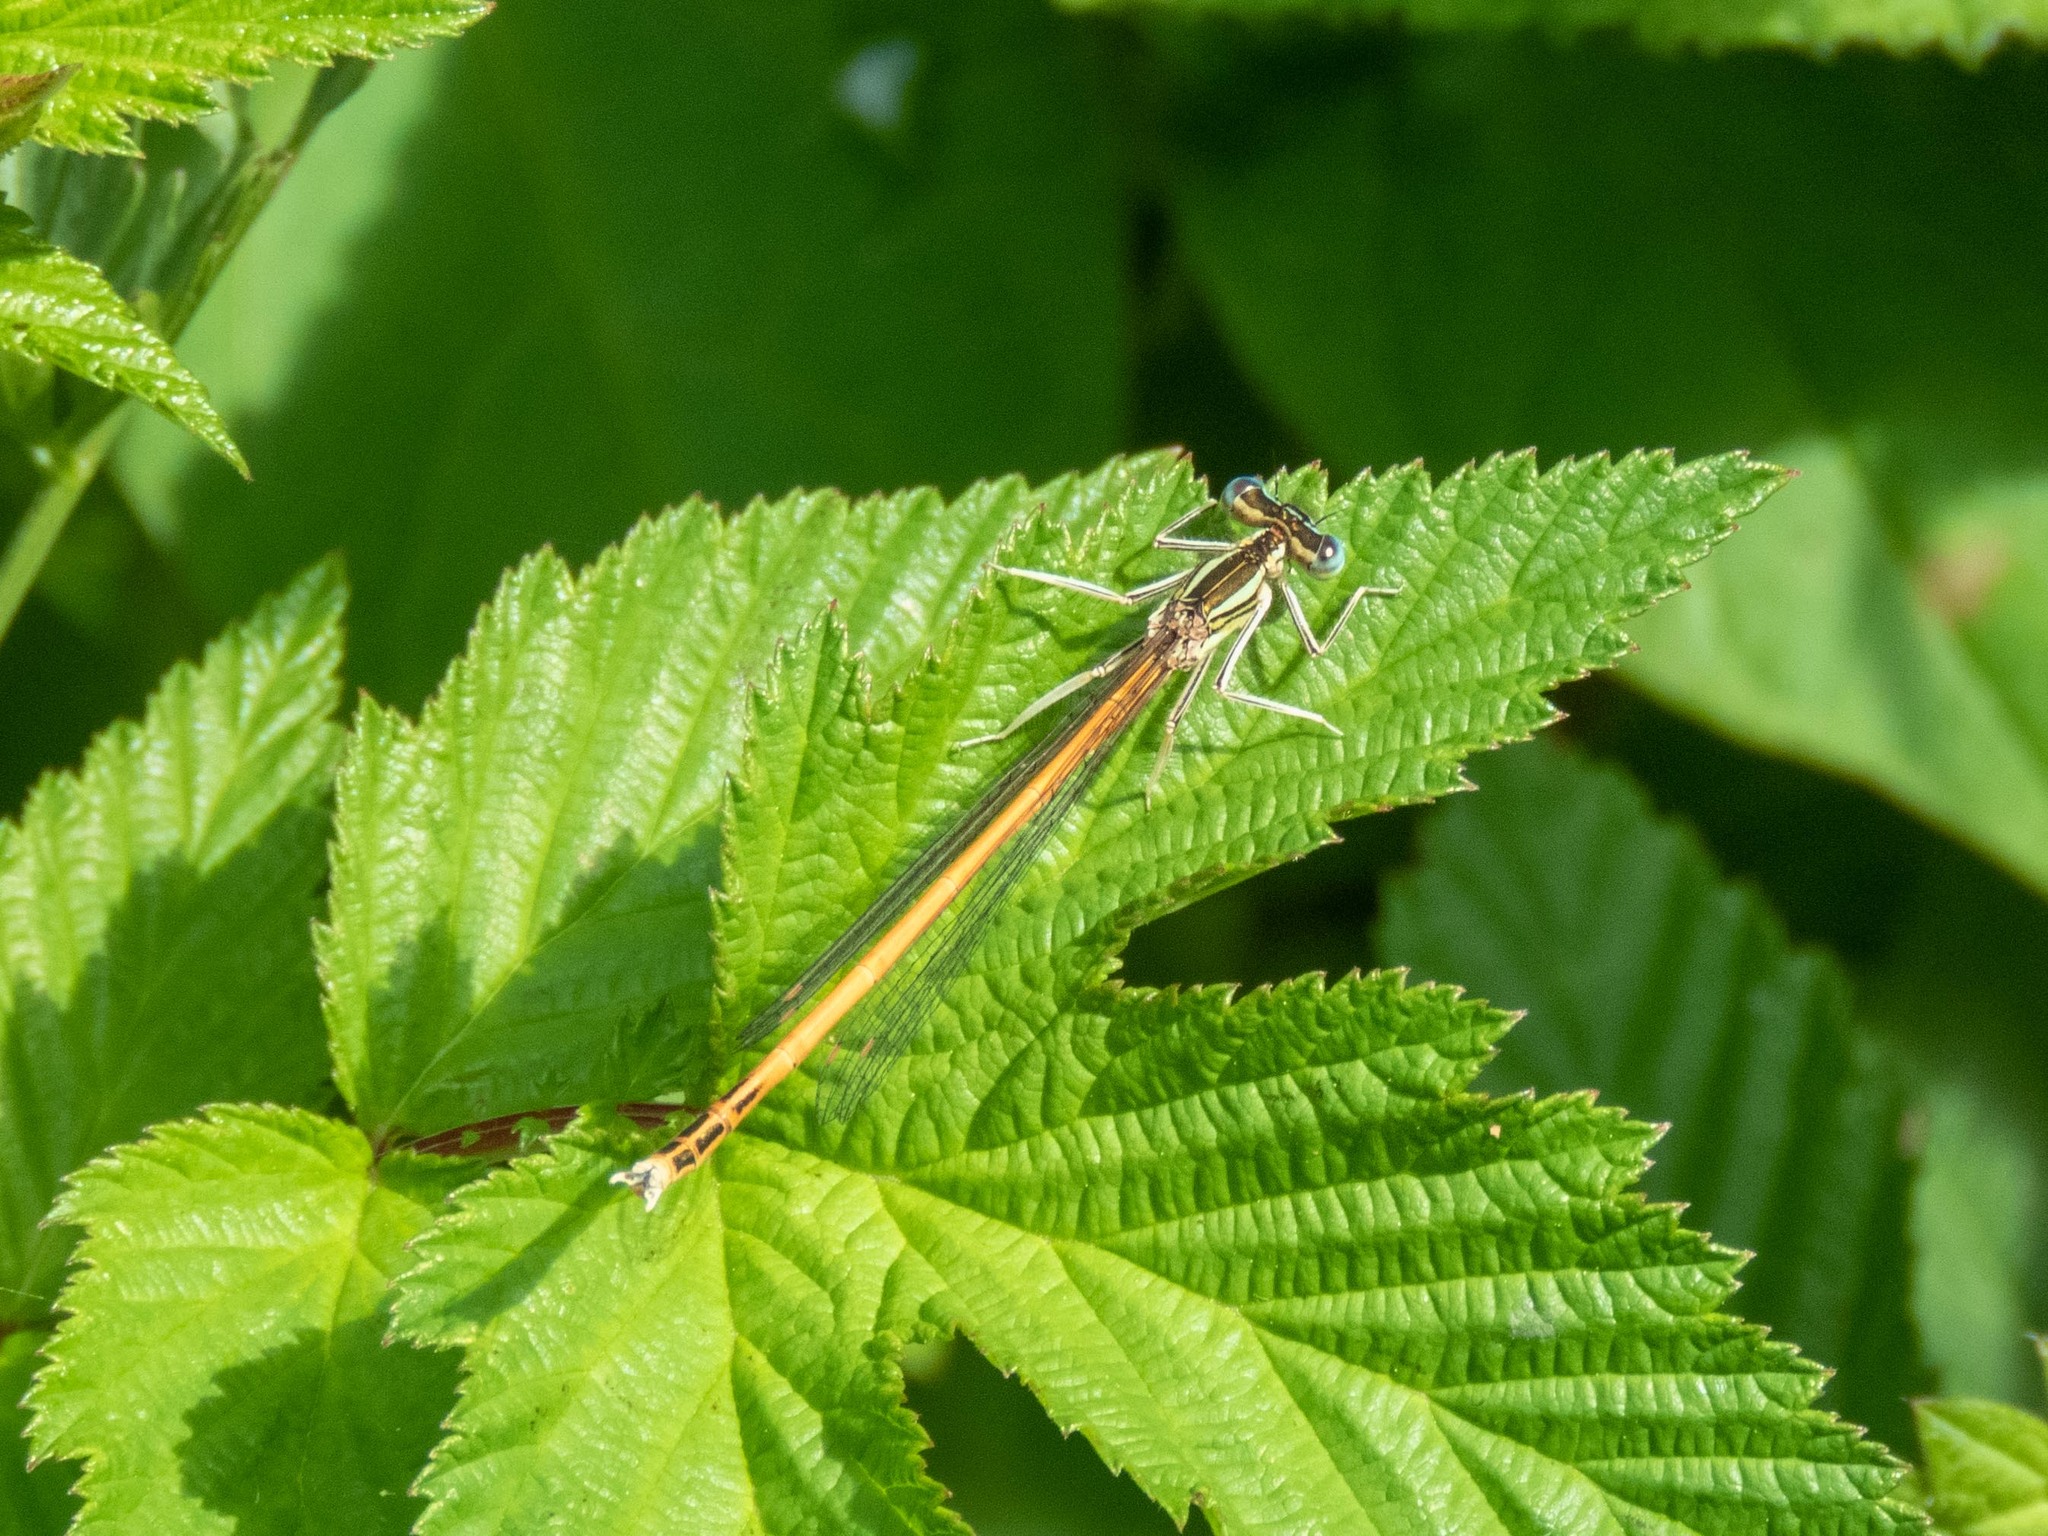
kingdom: Animalia
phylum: Arthropoda
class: Insecta
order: Odonata
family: Platycnemididae
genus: Platycnemis
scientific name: Platycnemis acutipennis
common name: Orange featherleg
